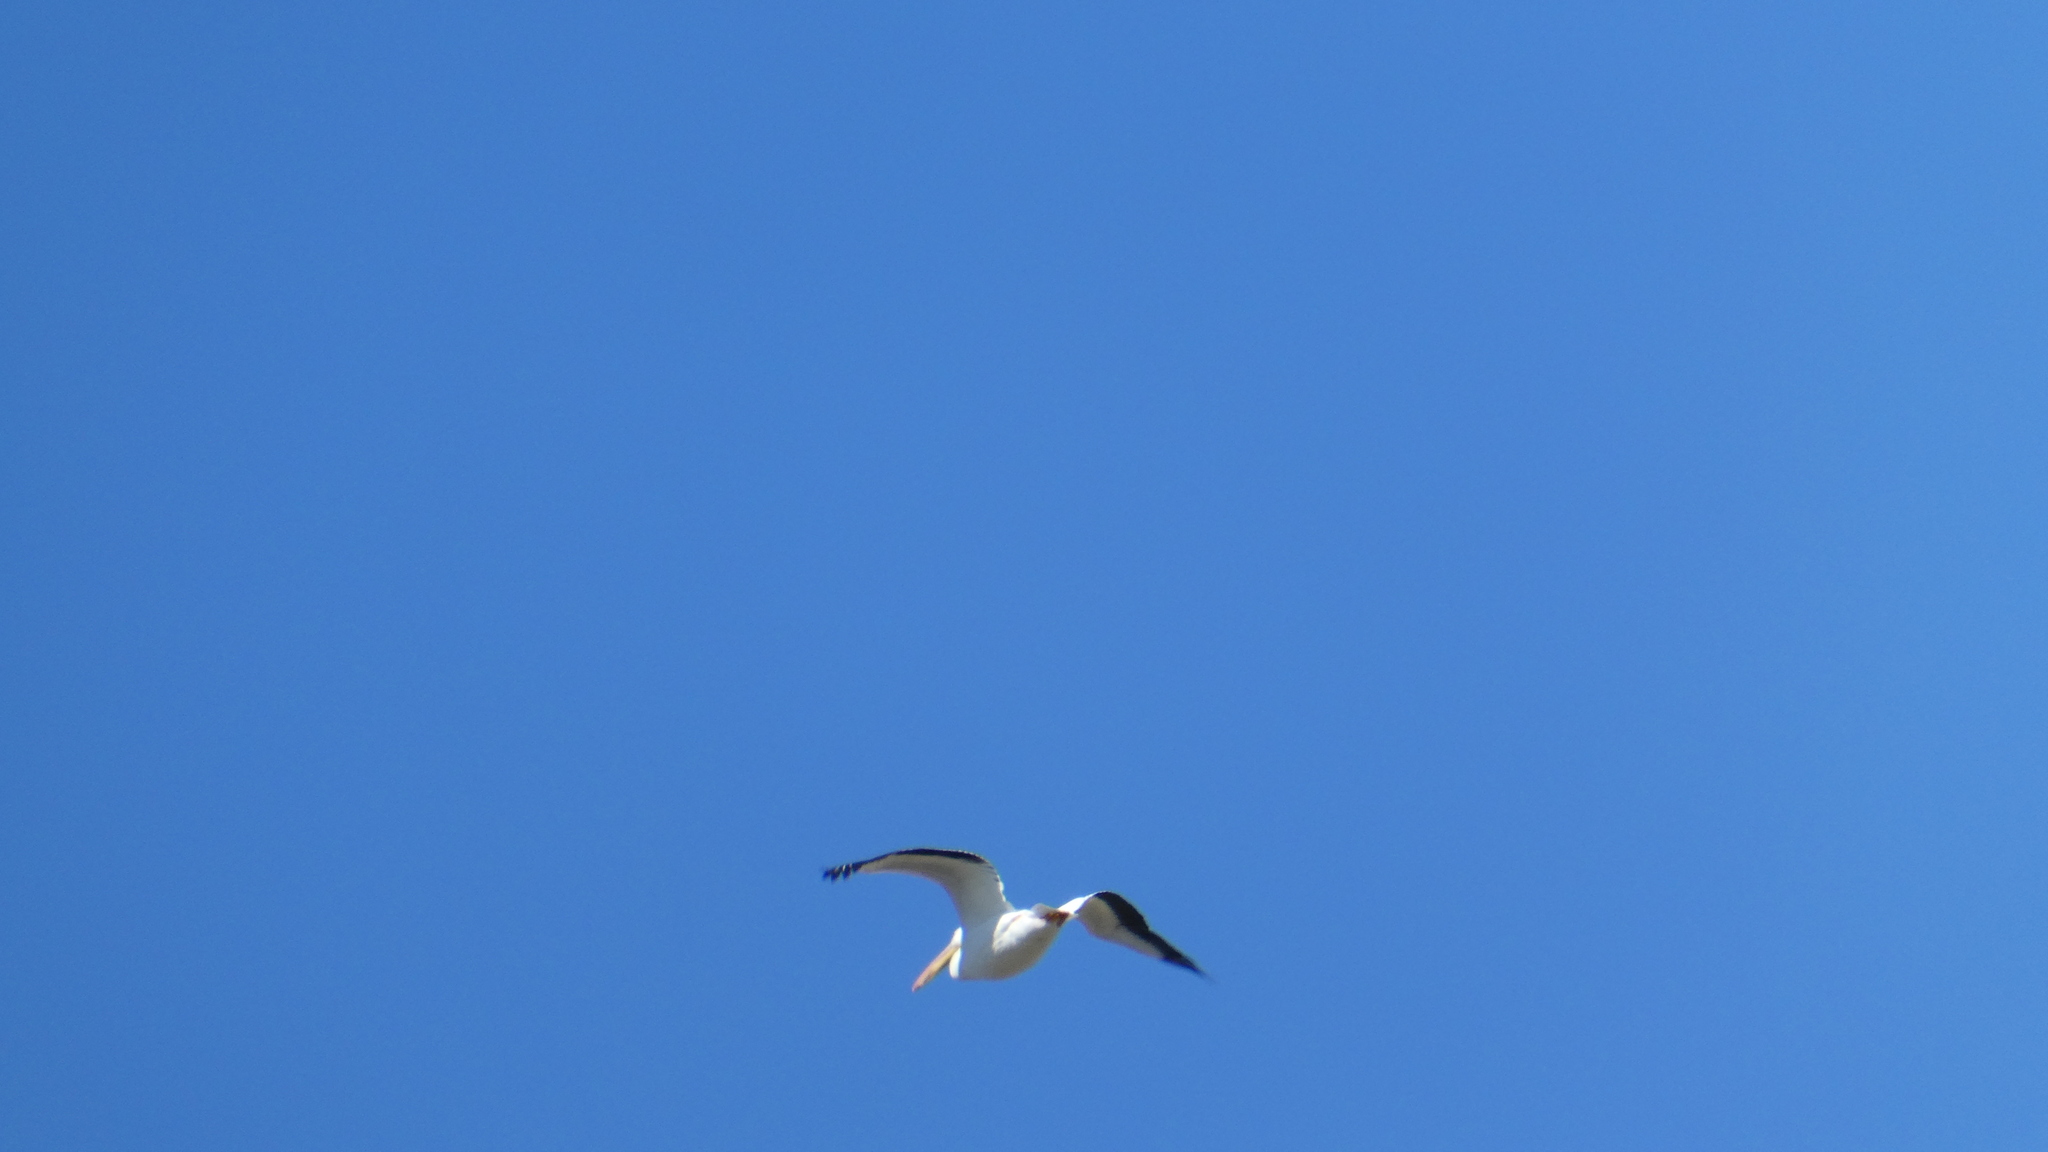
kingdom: Animalia
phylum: Chordata
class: Aves
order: Pelecaniformes
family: Pelecanidae
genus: Pelecanus
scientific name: Pelecanus erythrorhynchos
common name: American white pelican
